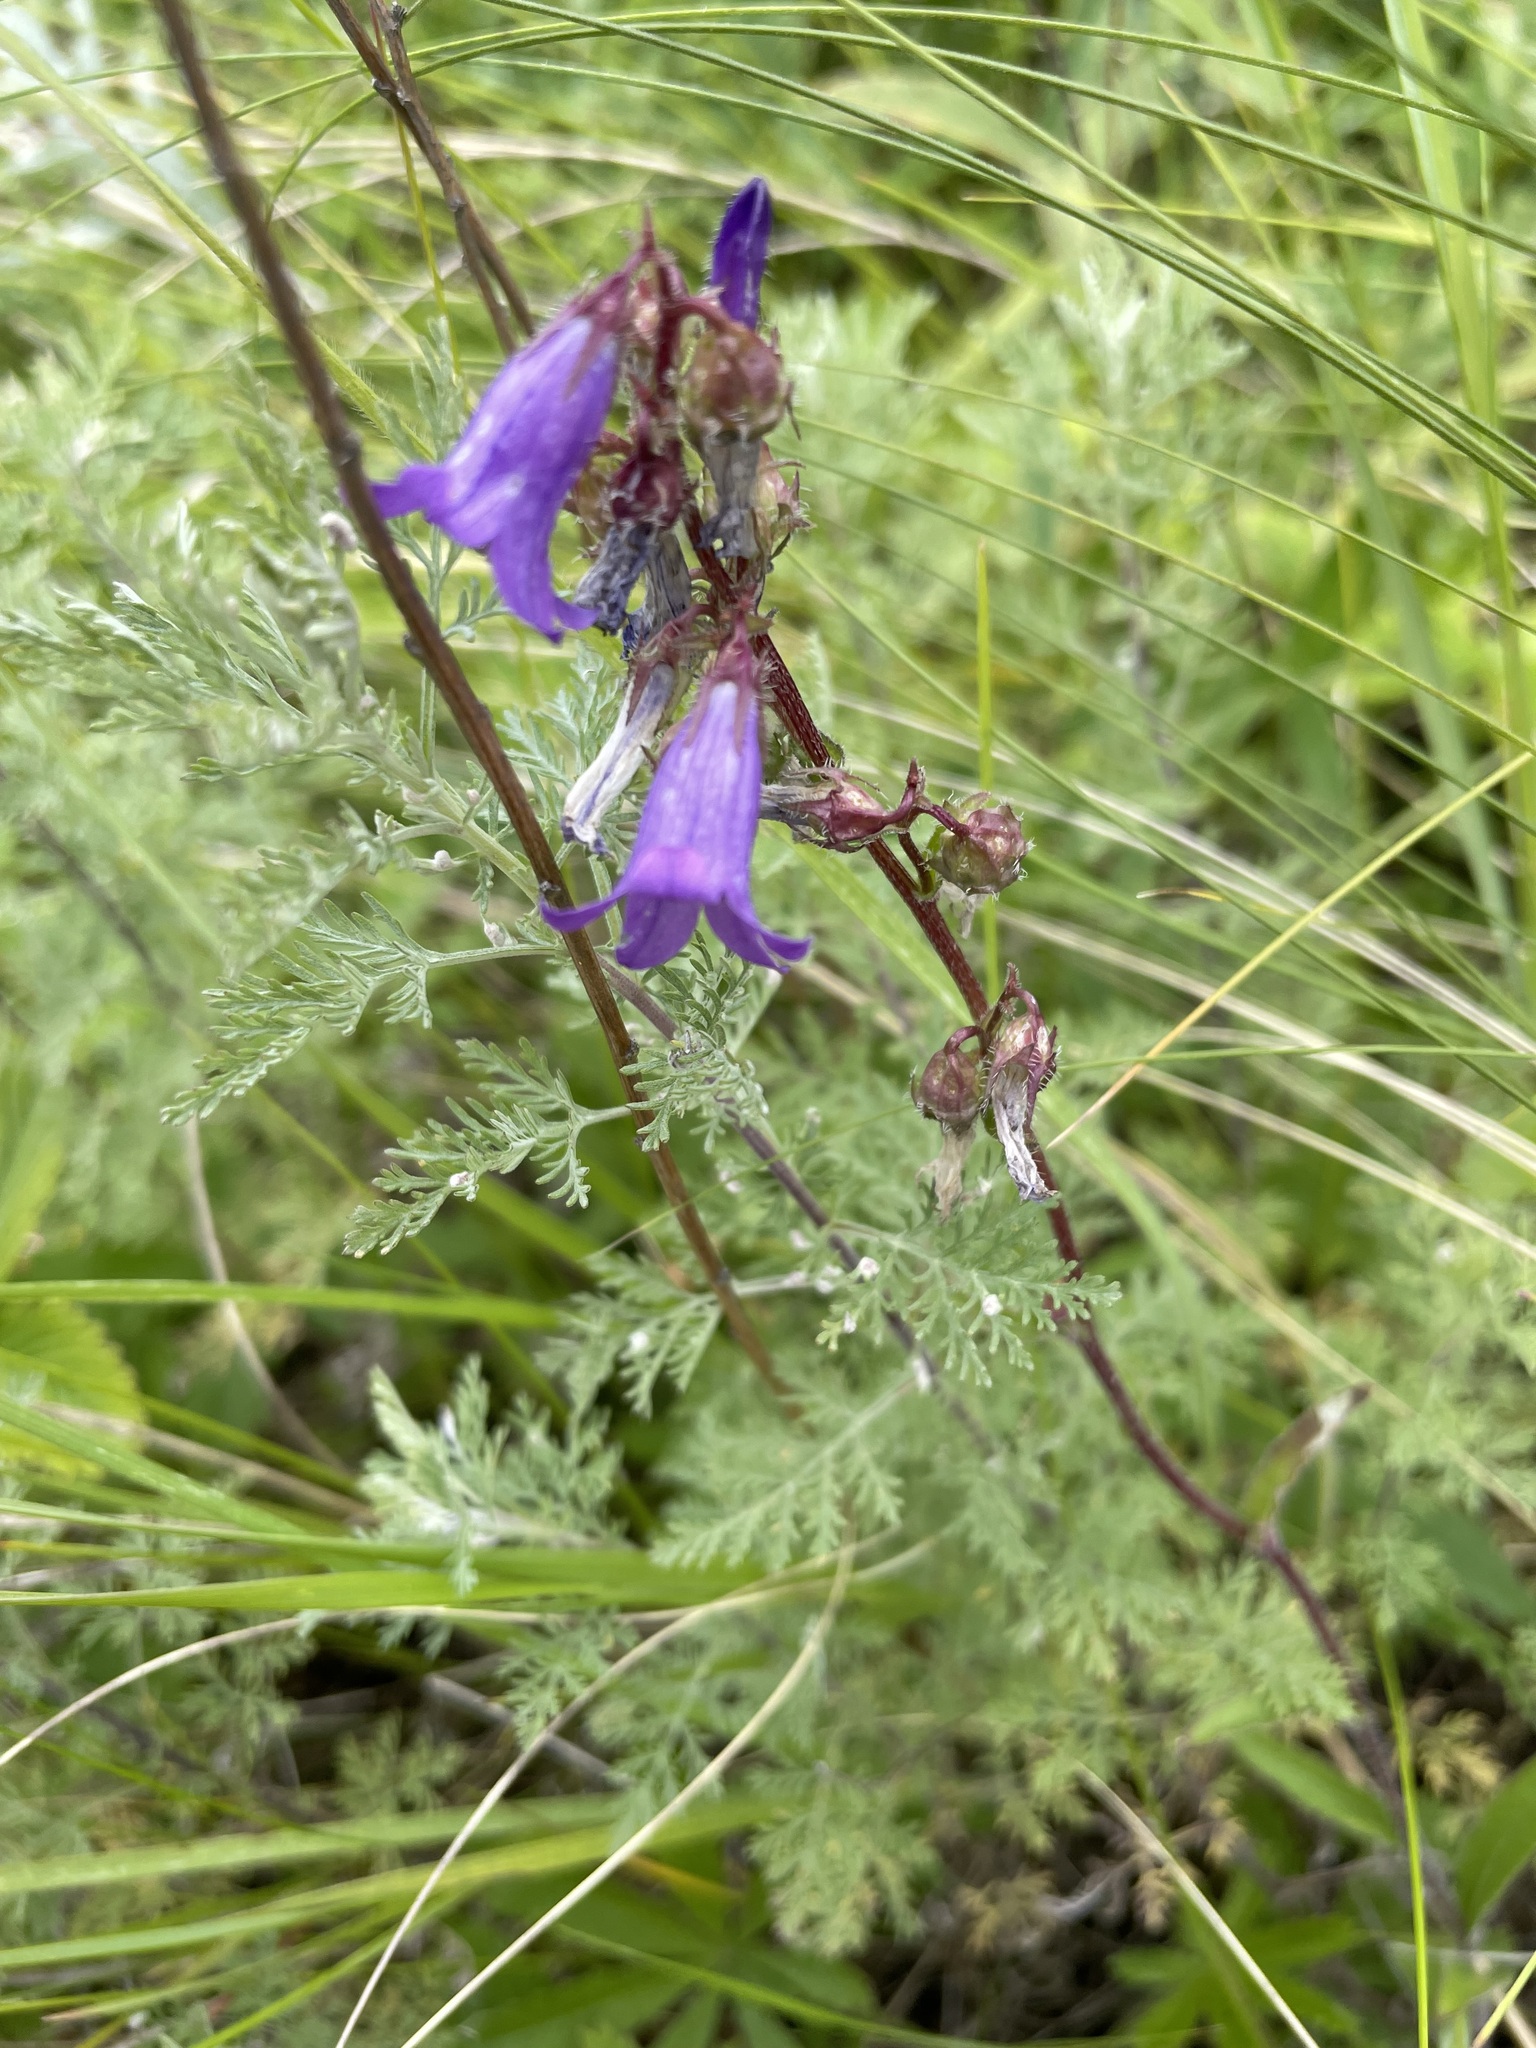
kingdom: Plantae
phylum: Tracheophyta
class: Magnoliopsida
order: Asterales
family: Campanulaceae
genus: Campanula
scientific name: Campanula sibirica
